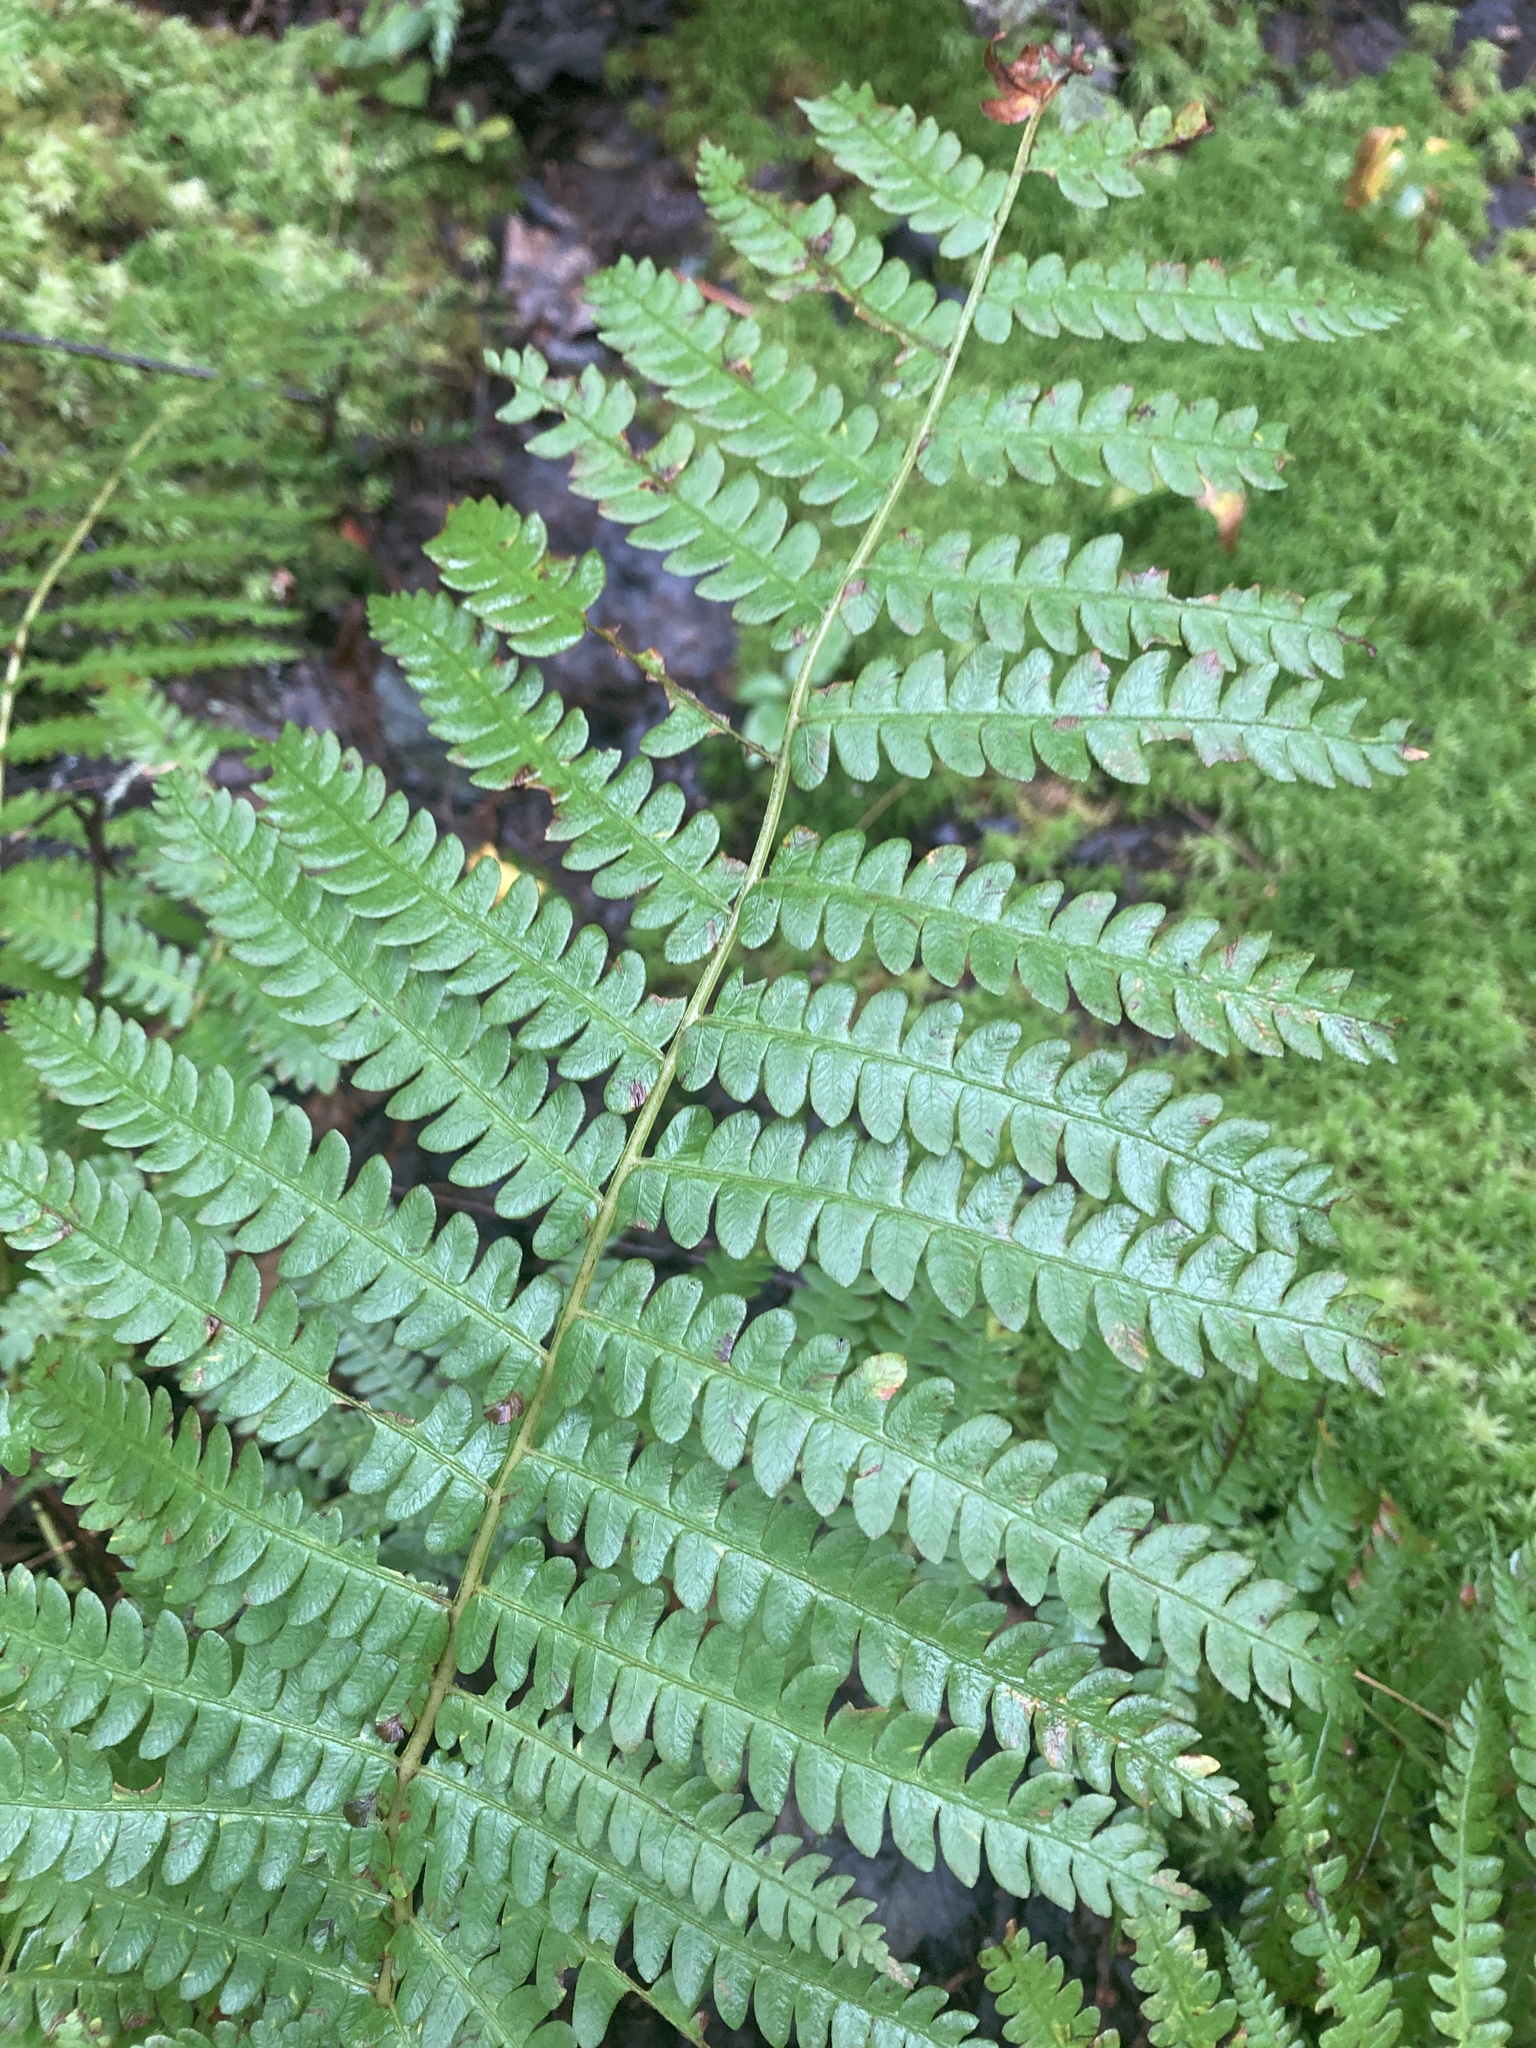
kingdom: Plantae
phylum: Tracheophyta
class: Polypodiopsida
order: Osmundales
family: Osmundaceae
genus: Osmundastrum
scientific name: Osmundastrum cinnamomeum
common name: Cinnamon fern
